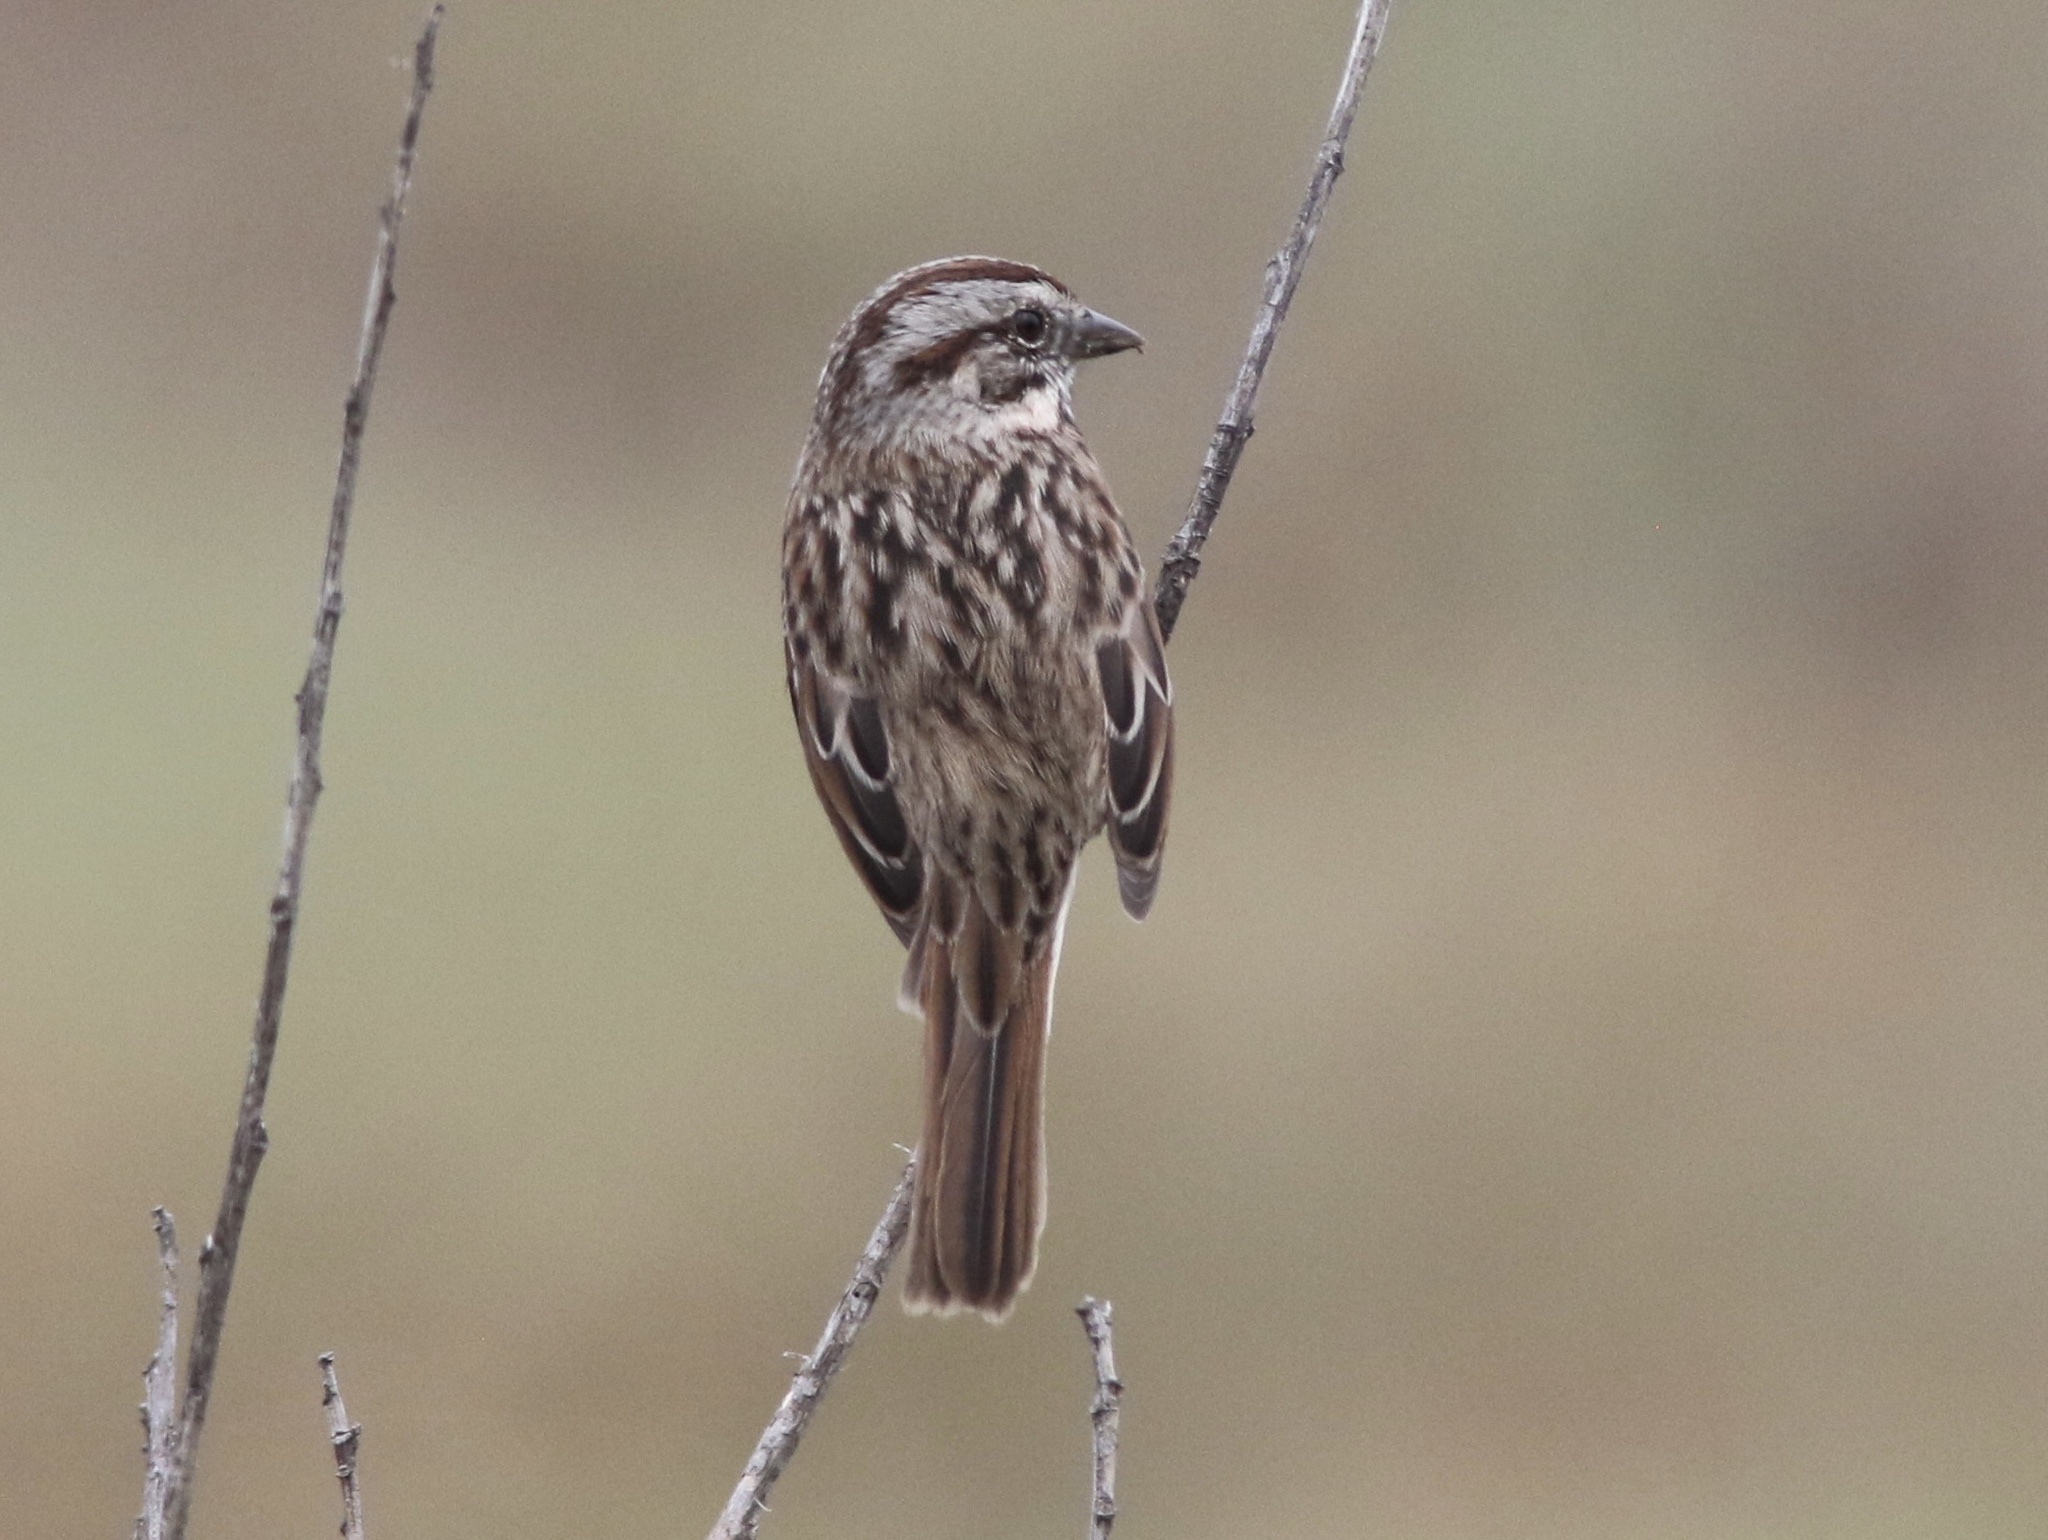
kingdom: Animalia
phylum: Chordata
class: Aves
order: Passeriformes
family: Passerellidae
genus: Melospiza
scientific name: Melospiza melodia
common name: Song sparrow
